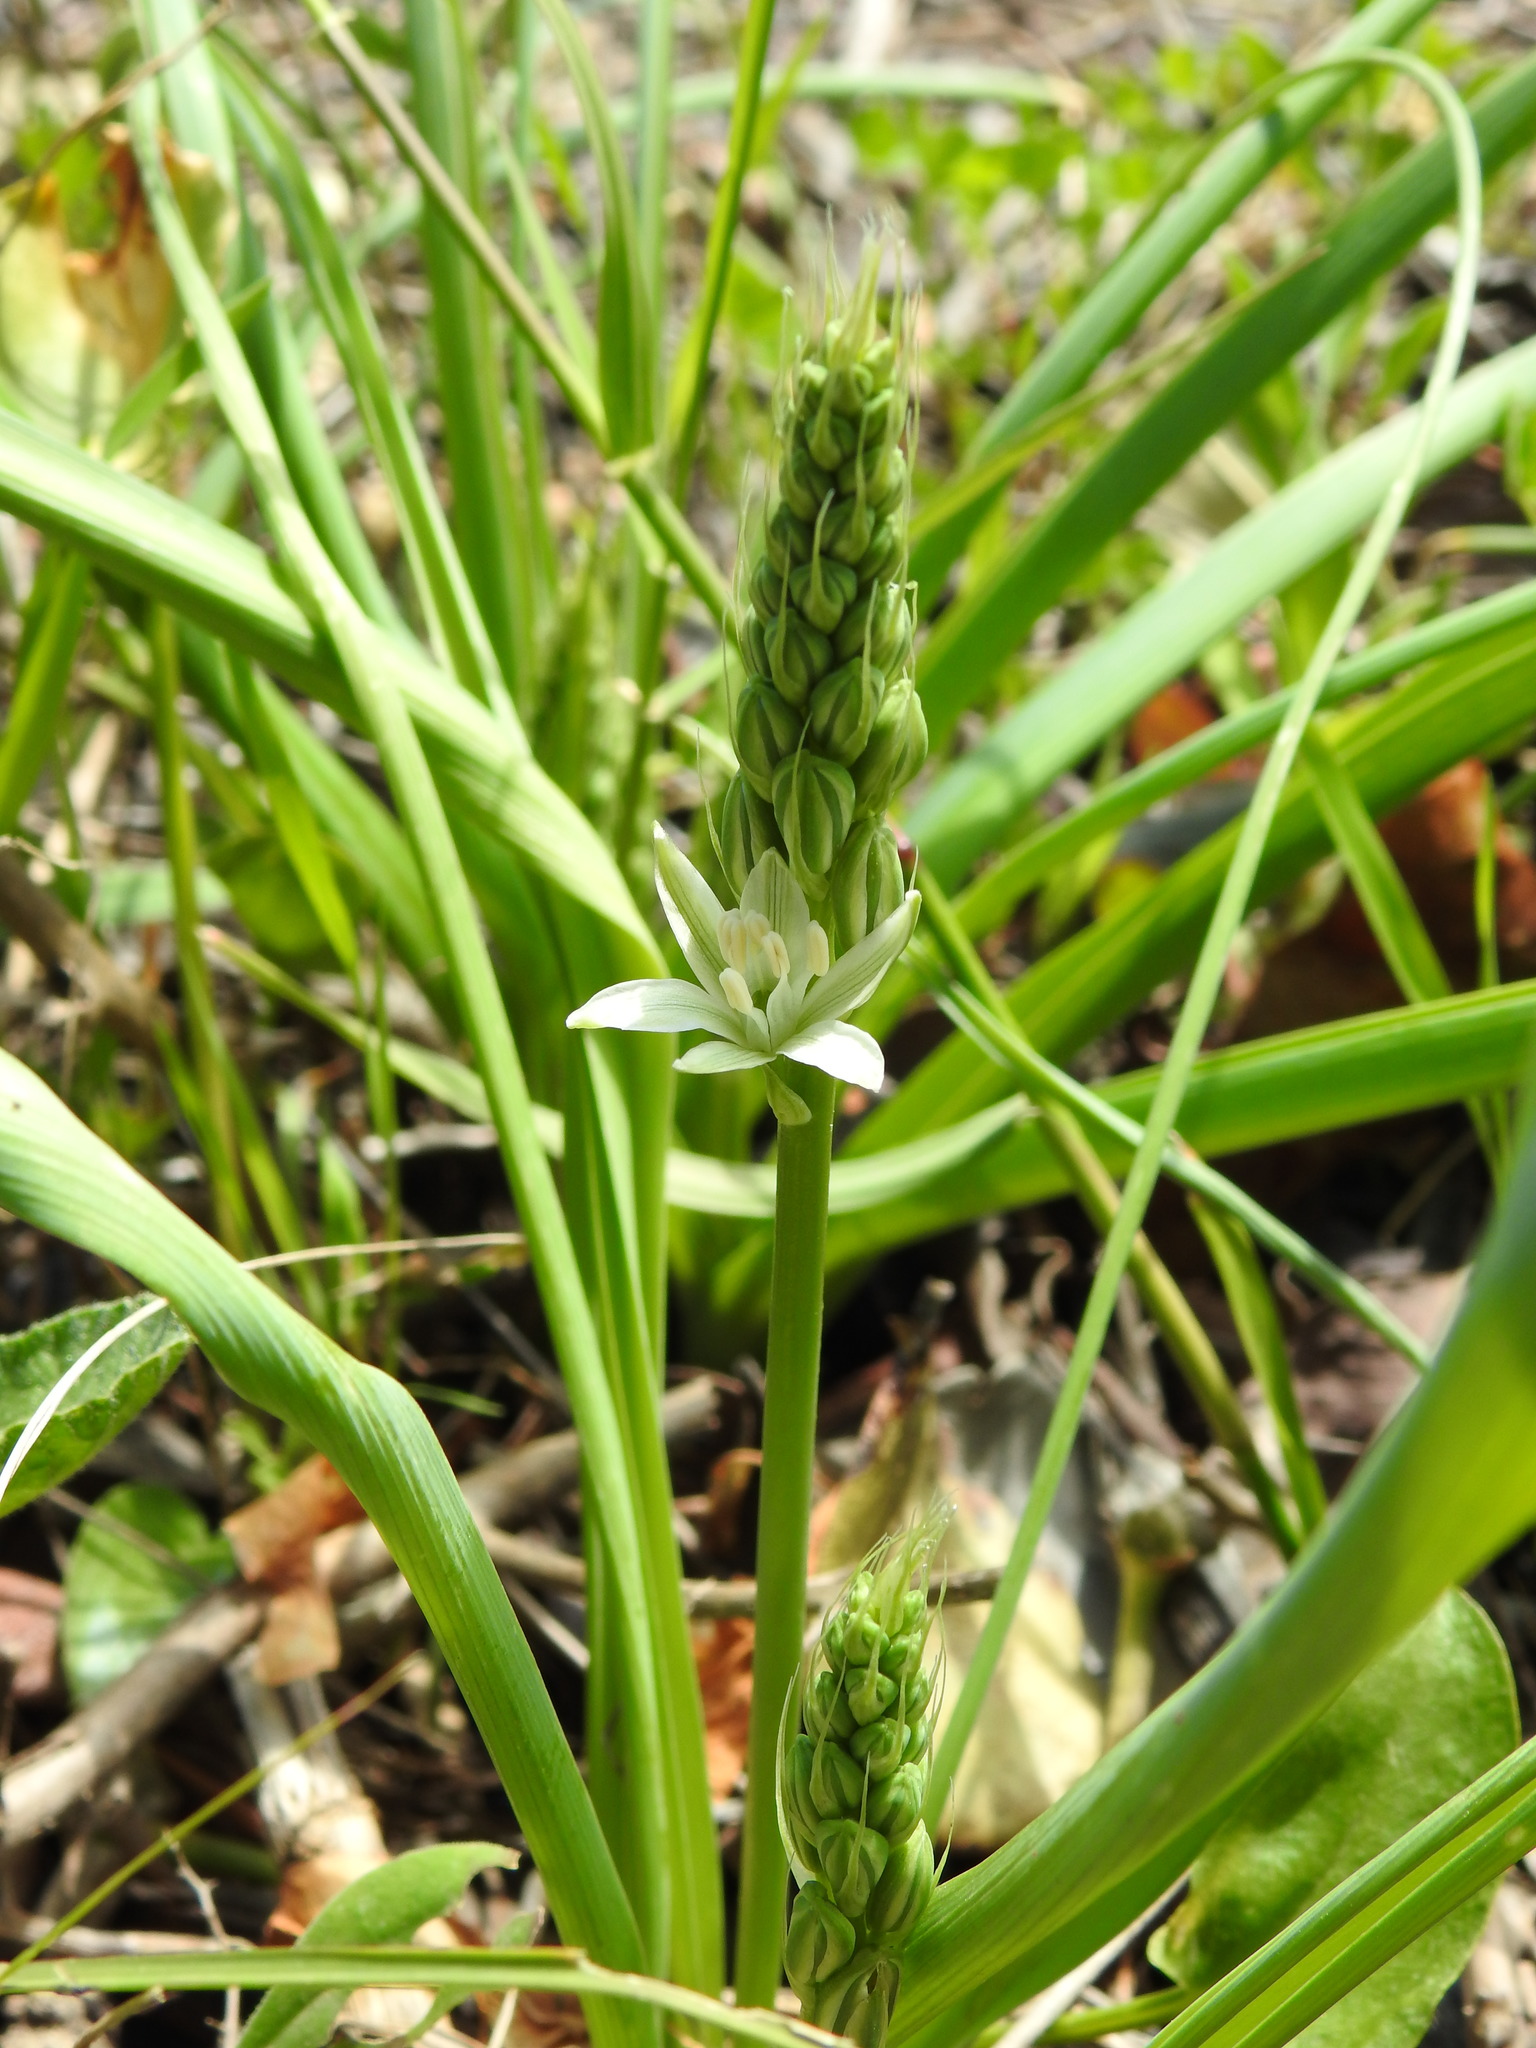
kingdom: Plantae
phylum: Tracheophyta
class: Liliopsida
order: Asparagales
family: Asparagaceae
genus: Ornithogalum
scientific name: Ornithogalum narbonense
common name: Bath-asparagus
